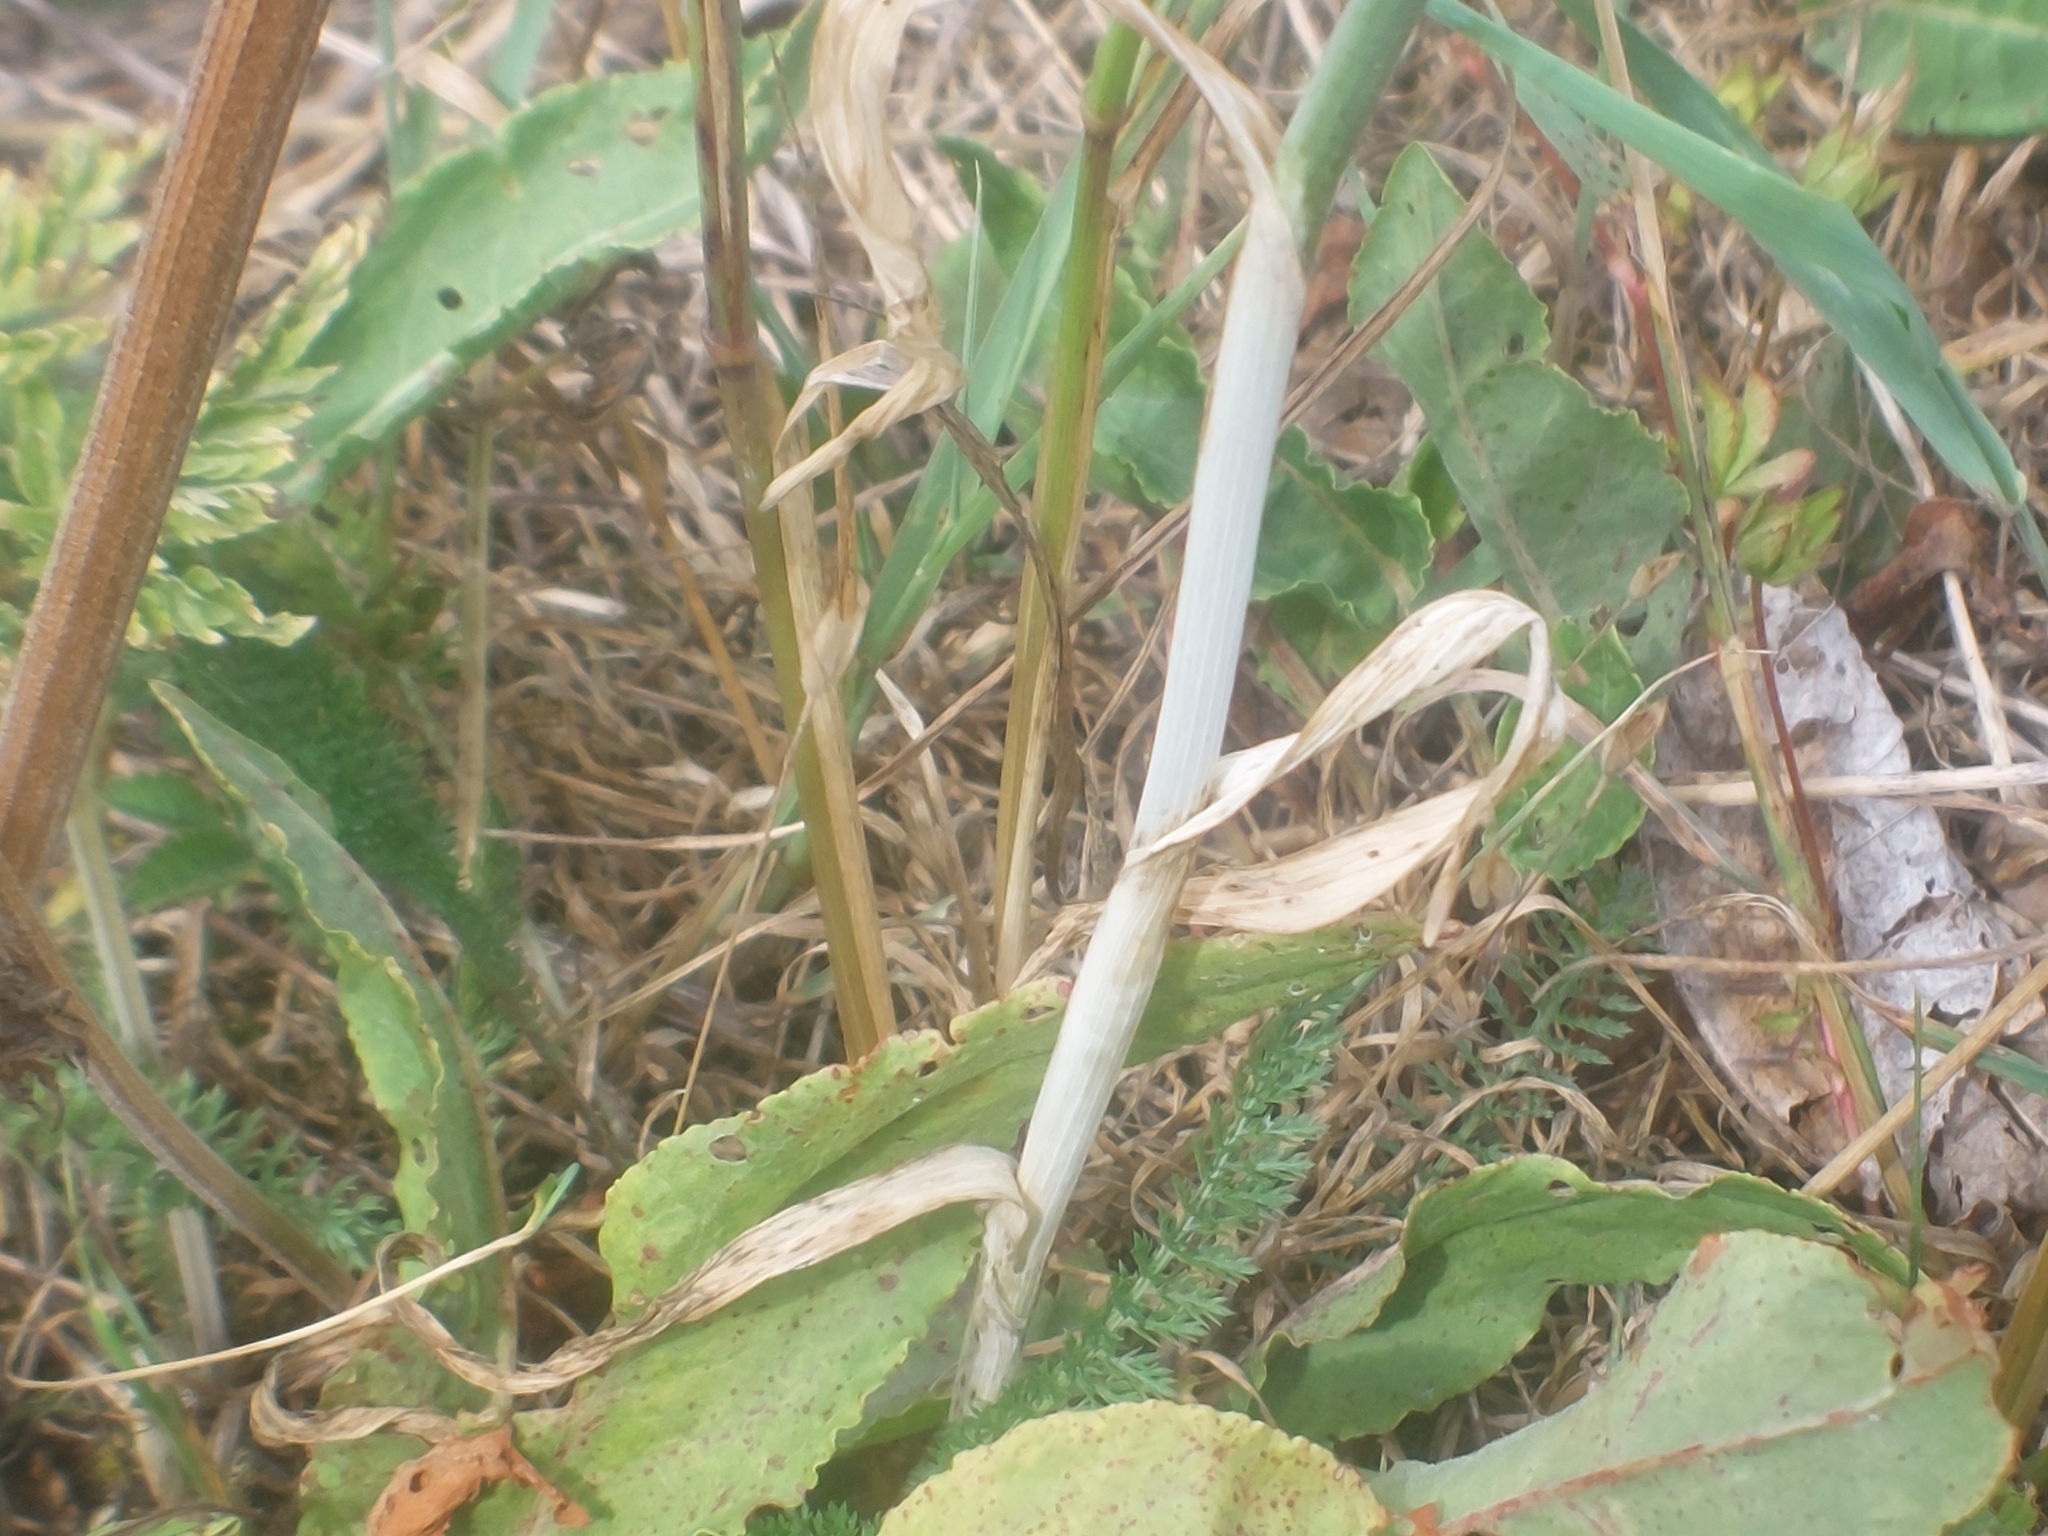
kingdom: Plantae
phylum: Tracheophyta
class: Liliopsida
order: Asparagales
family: Amaryllidaceae
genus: Allium
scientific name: Allium scorodoprasum
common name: Sand leek
